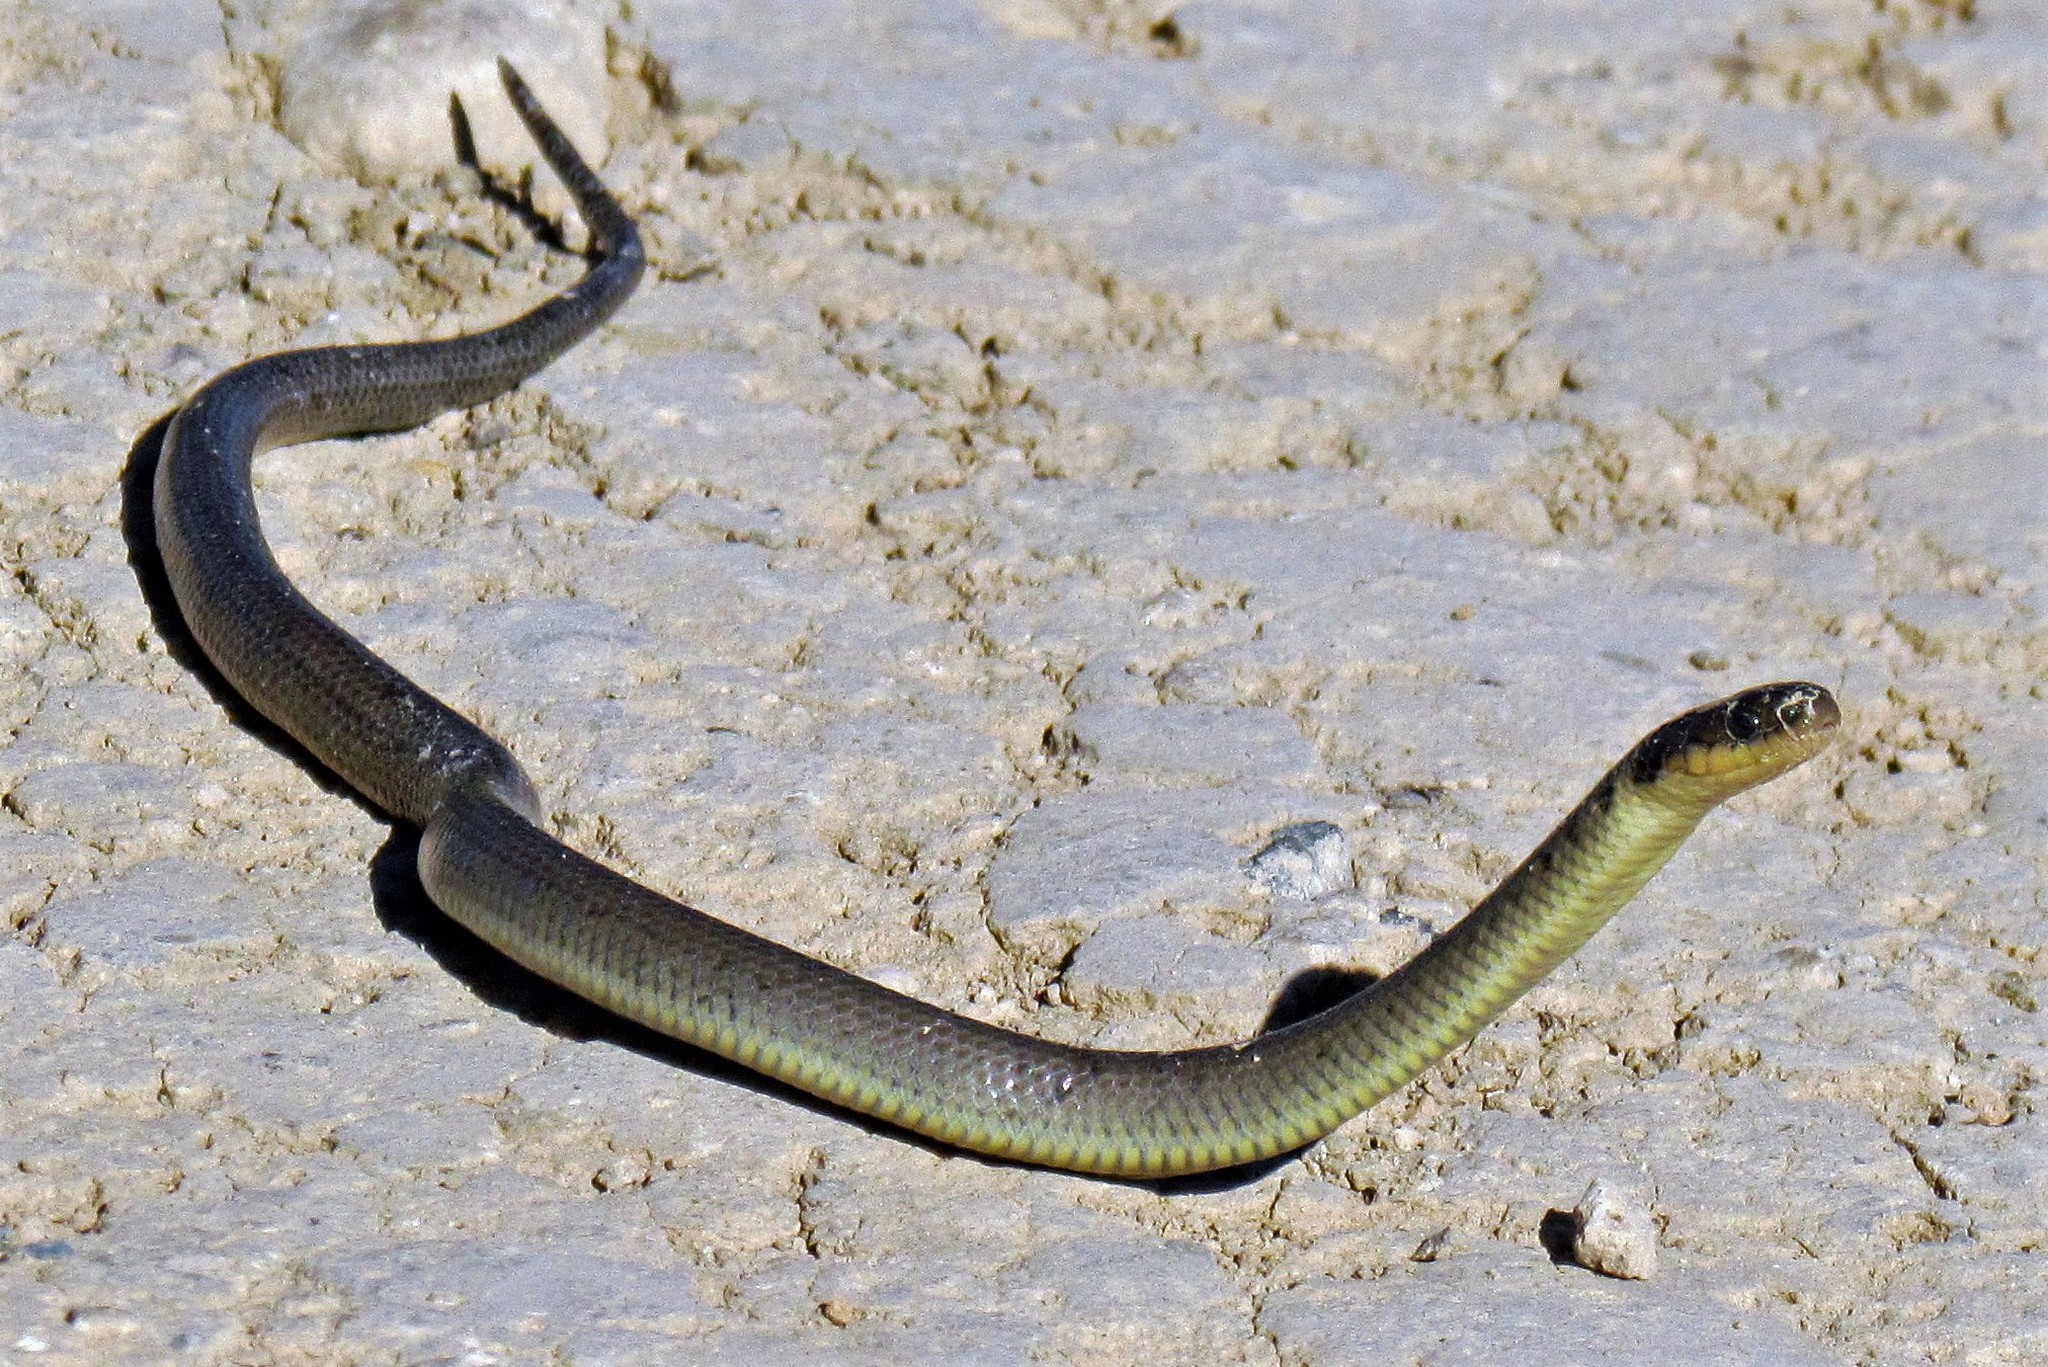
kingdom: Animalia
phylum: Chordata
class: Squamata
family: Colubridae
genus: Erythrolamprus
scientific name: Erythrolamprus semiaureus
